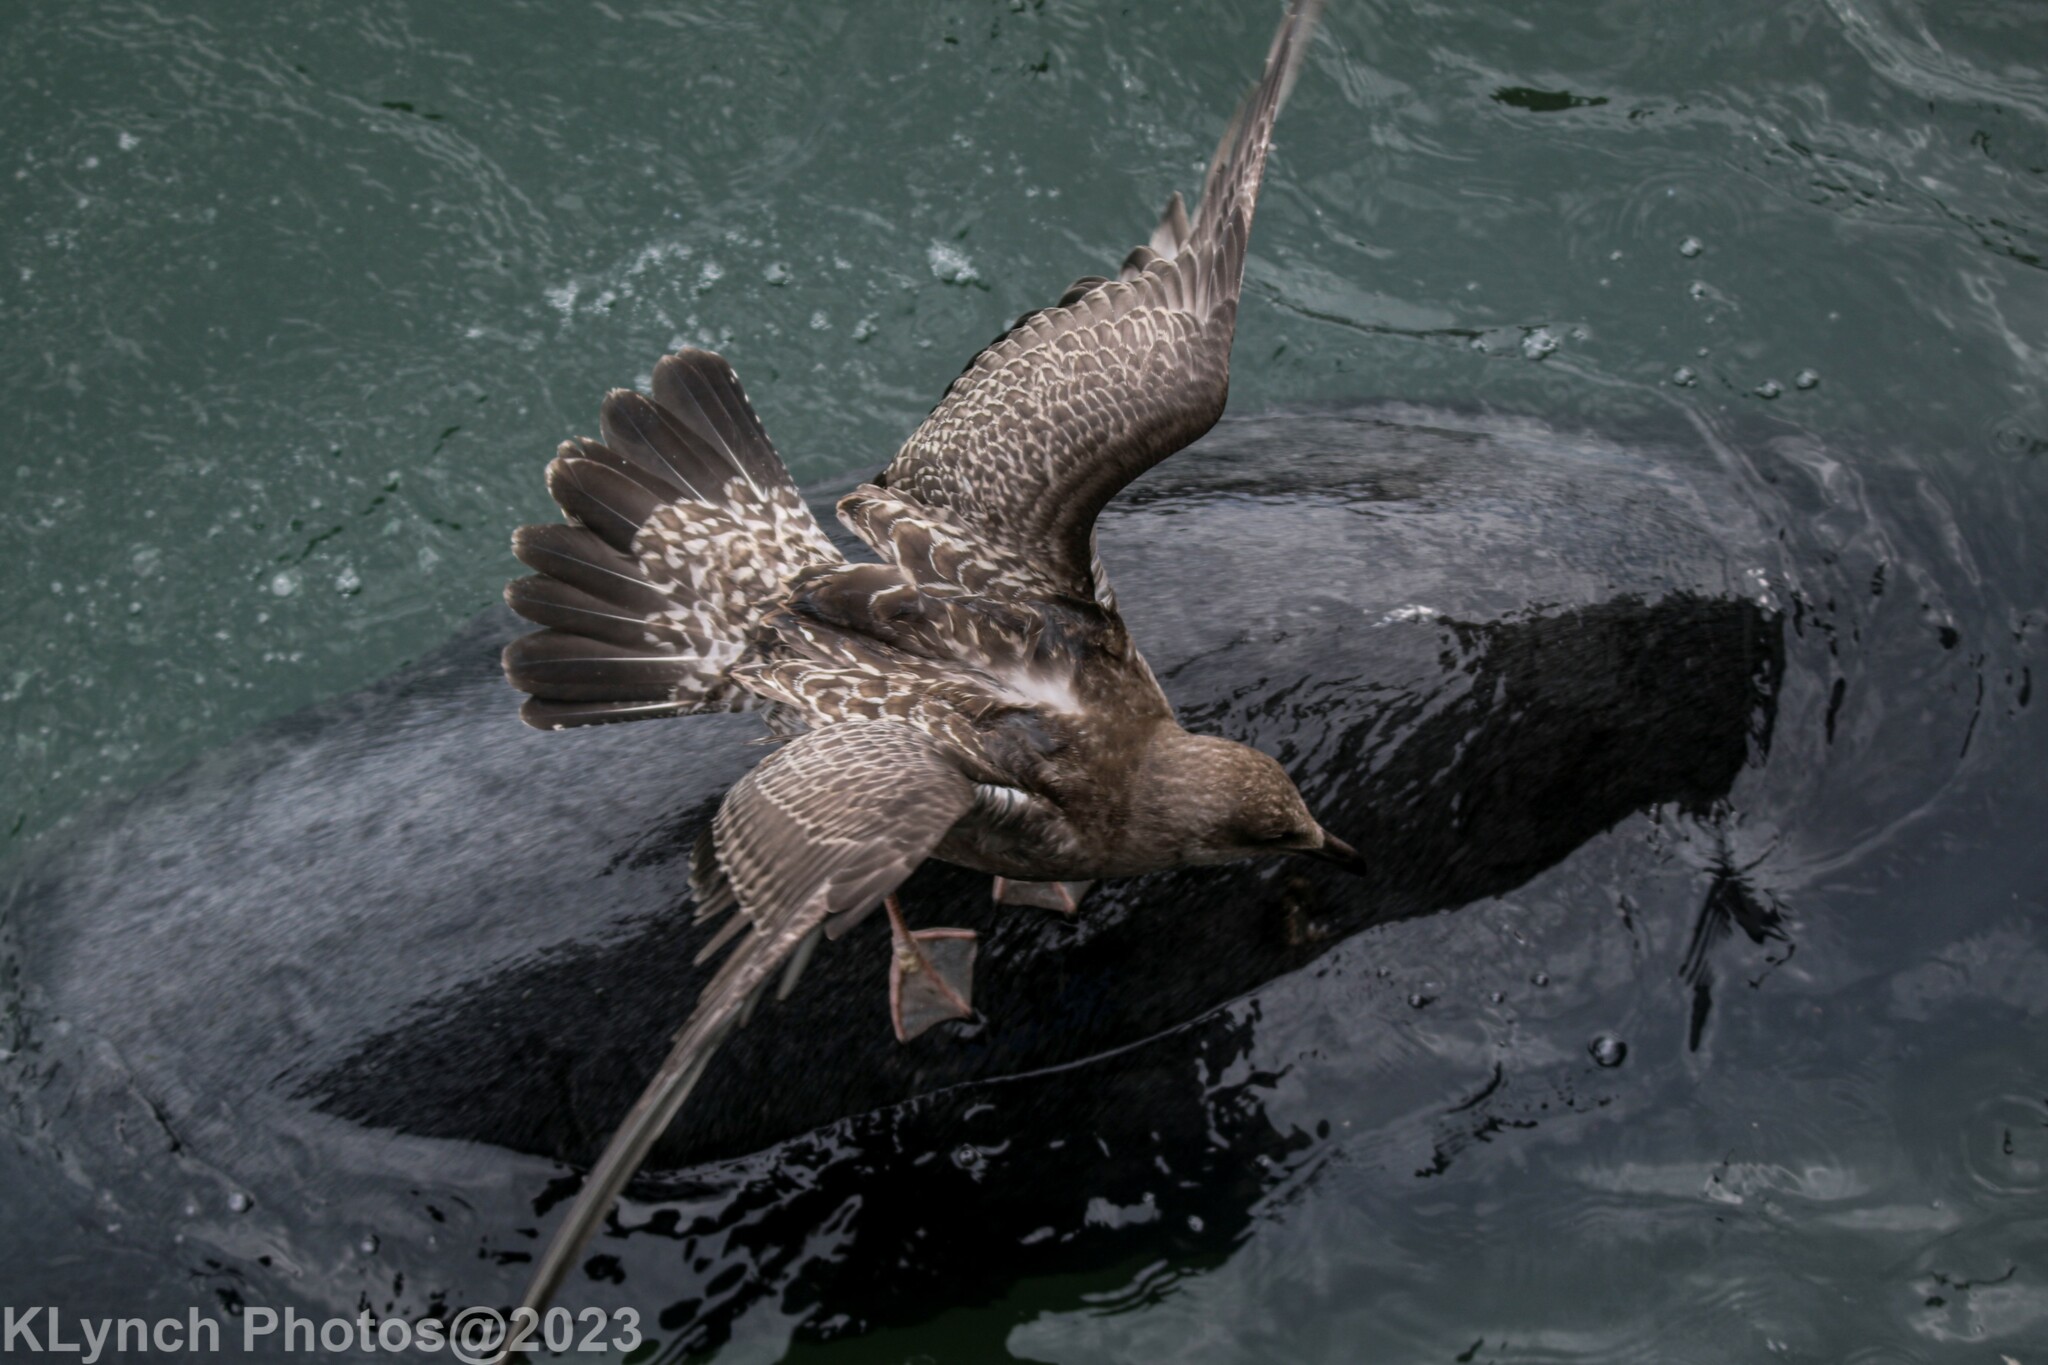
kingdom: Animalia
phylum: Chordata
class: Aves
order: Charadriiformes
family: Laridae
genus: Larus
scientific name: Larus argentatus
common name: Herring gull
